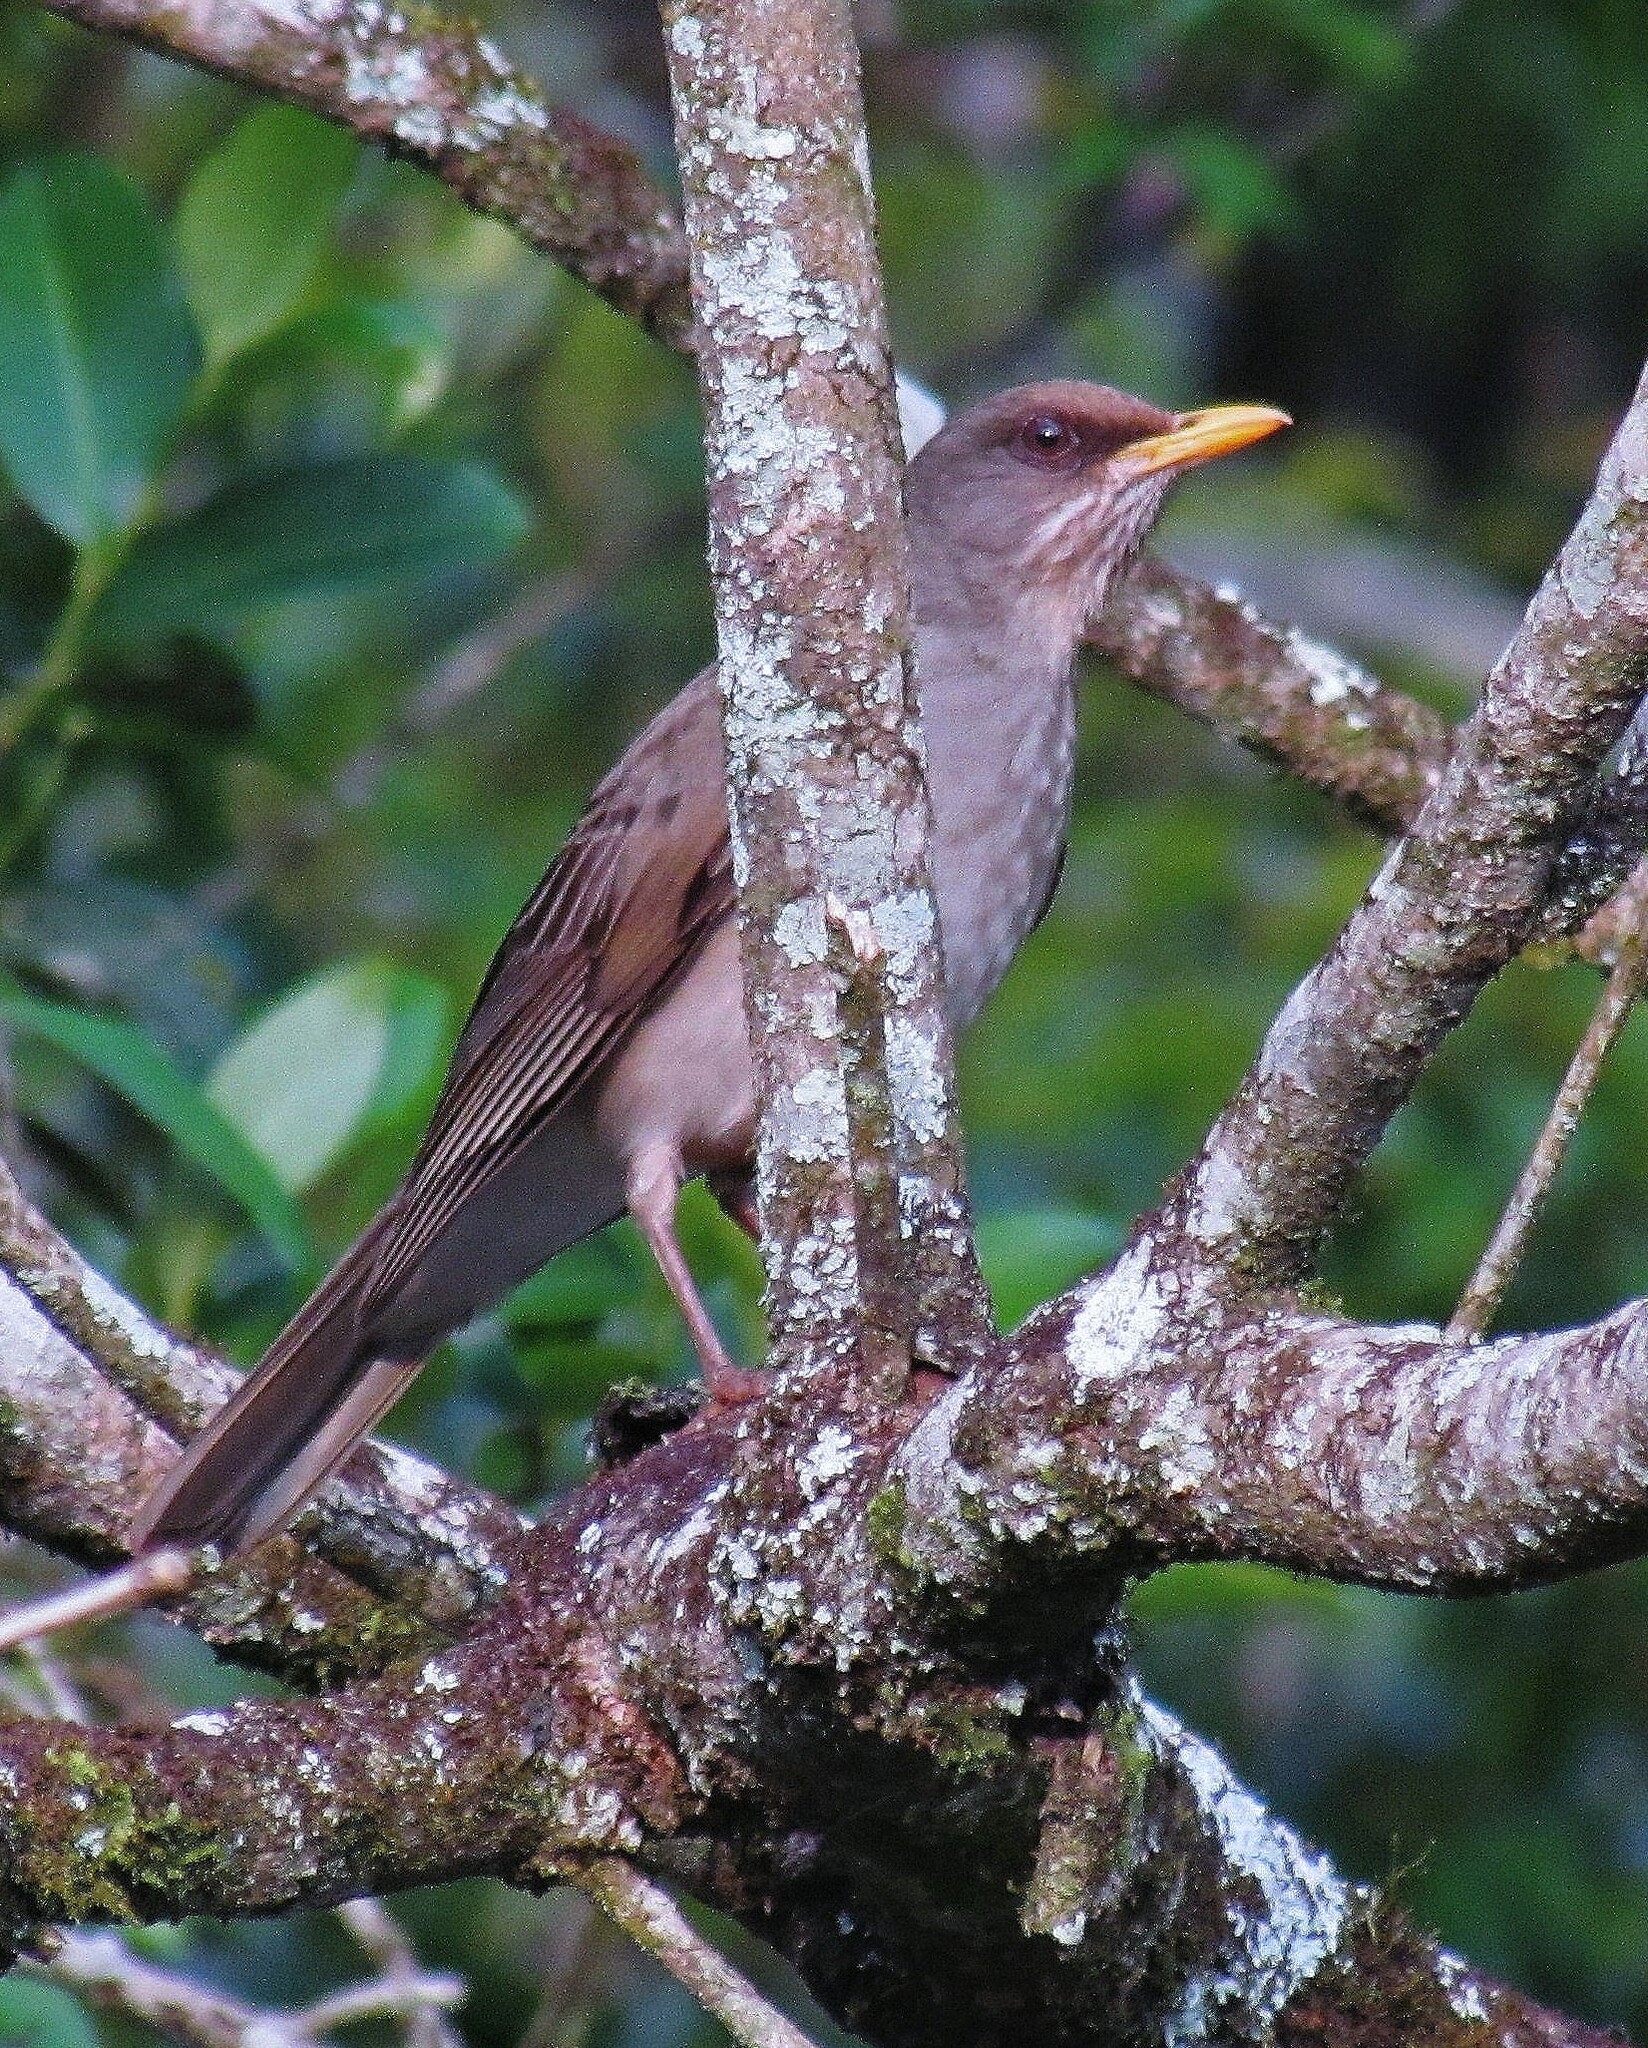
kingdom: Animalia
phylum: Chordata
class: Aves
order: Passeriformes
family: Turdidae
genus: Turdus
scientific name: Turdus amaurochalinus
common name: Creamy-bellied thrush
